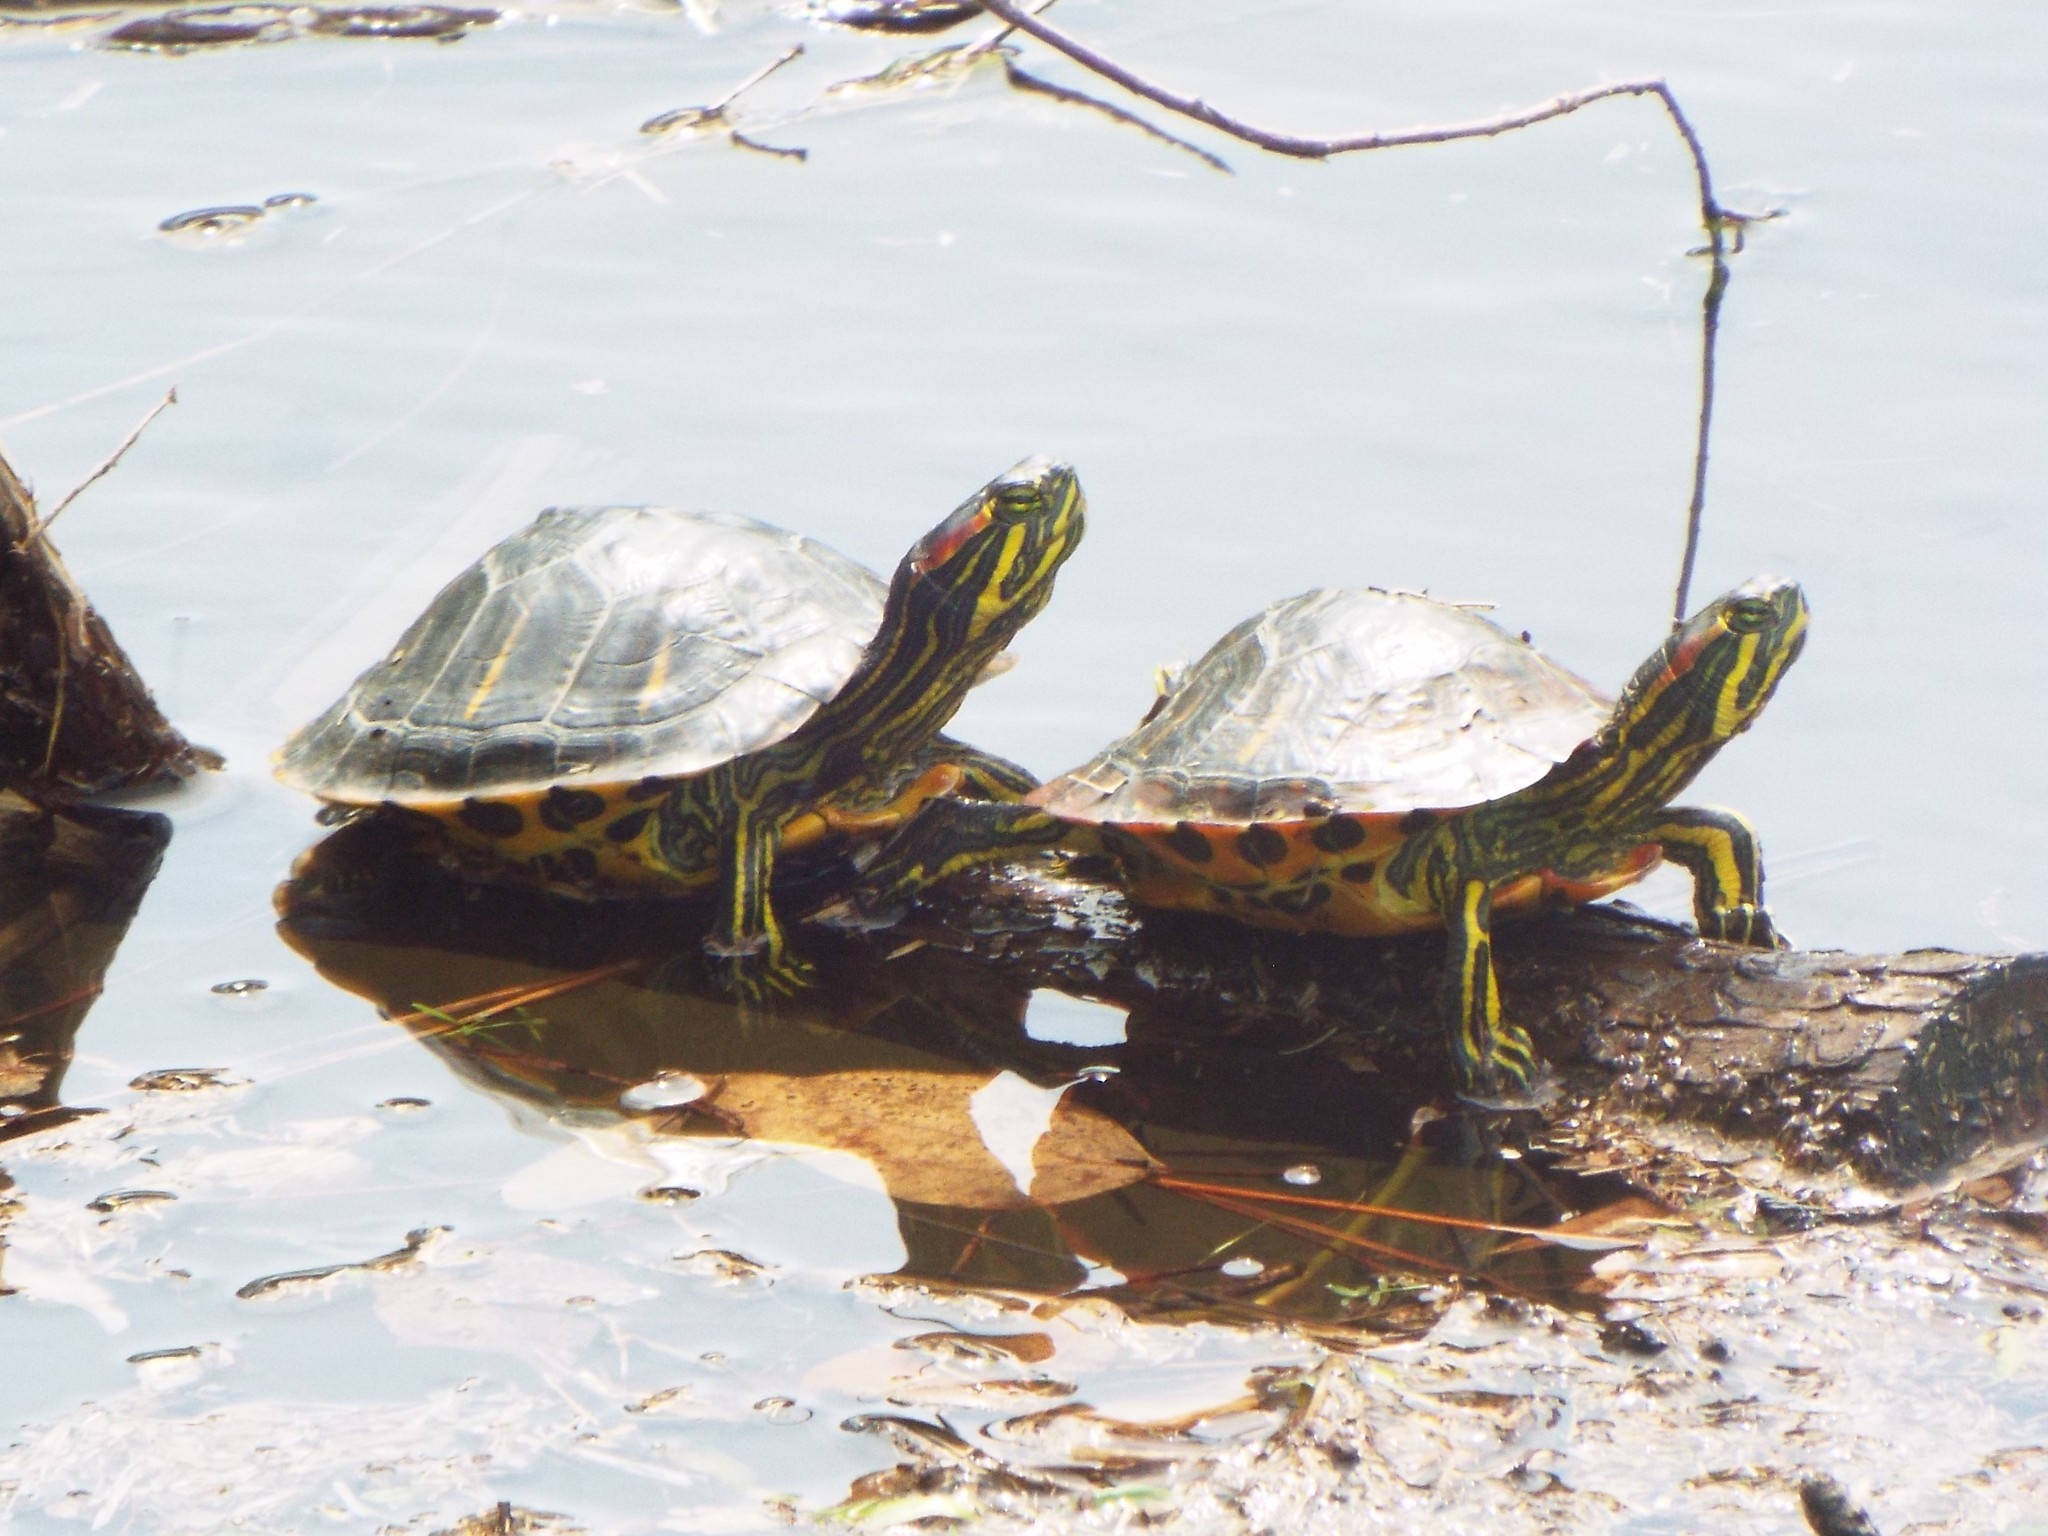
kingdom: Animalia
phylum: Chordata
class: Testudines
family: Emydidae
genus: Trachemys
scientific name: Trachemys scripta
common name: Slider
